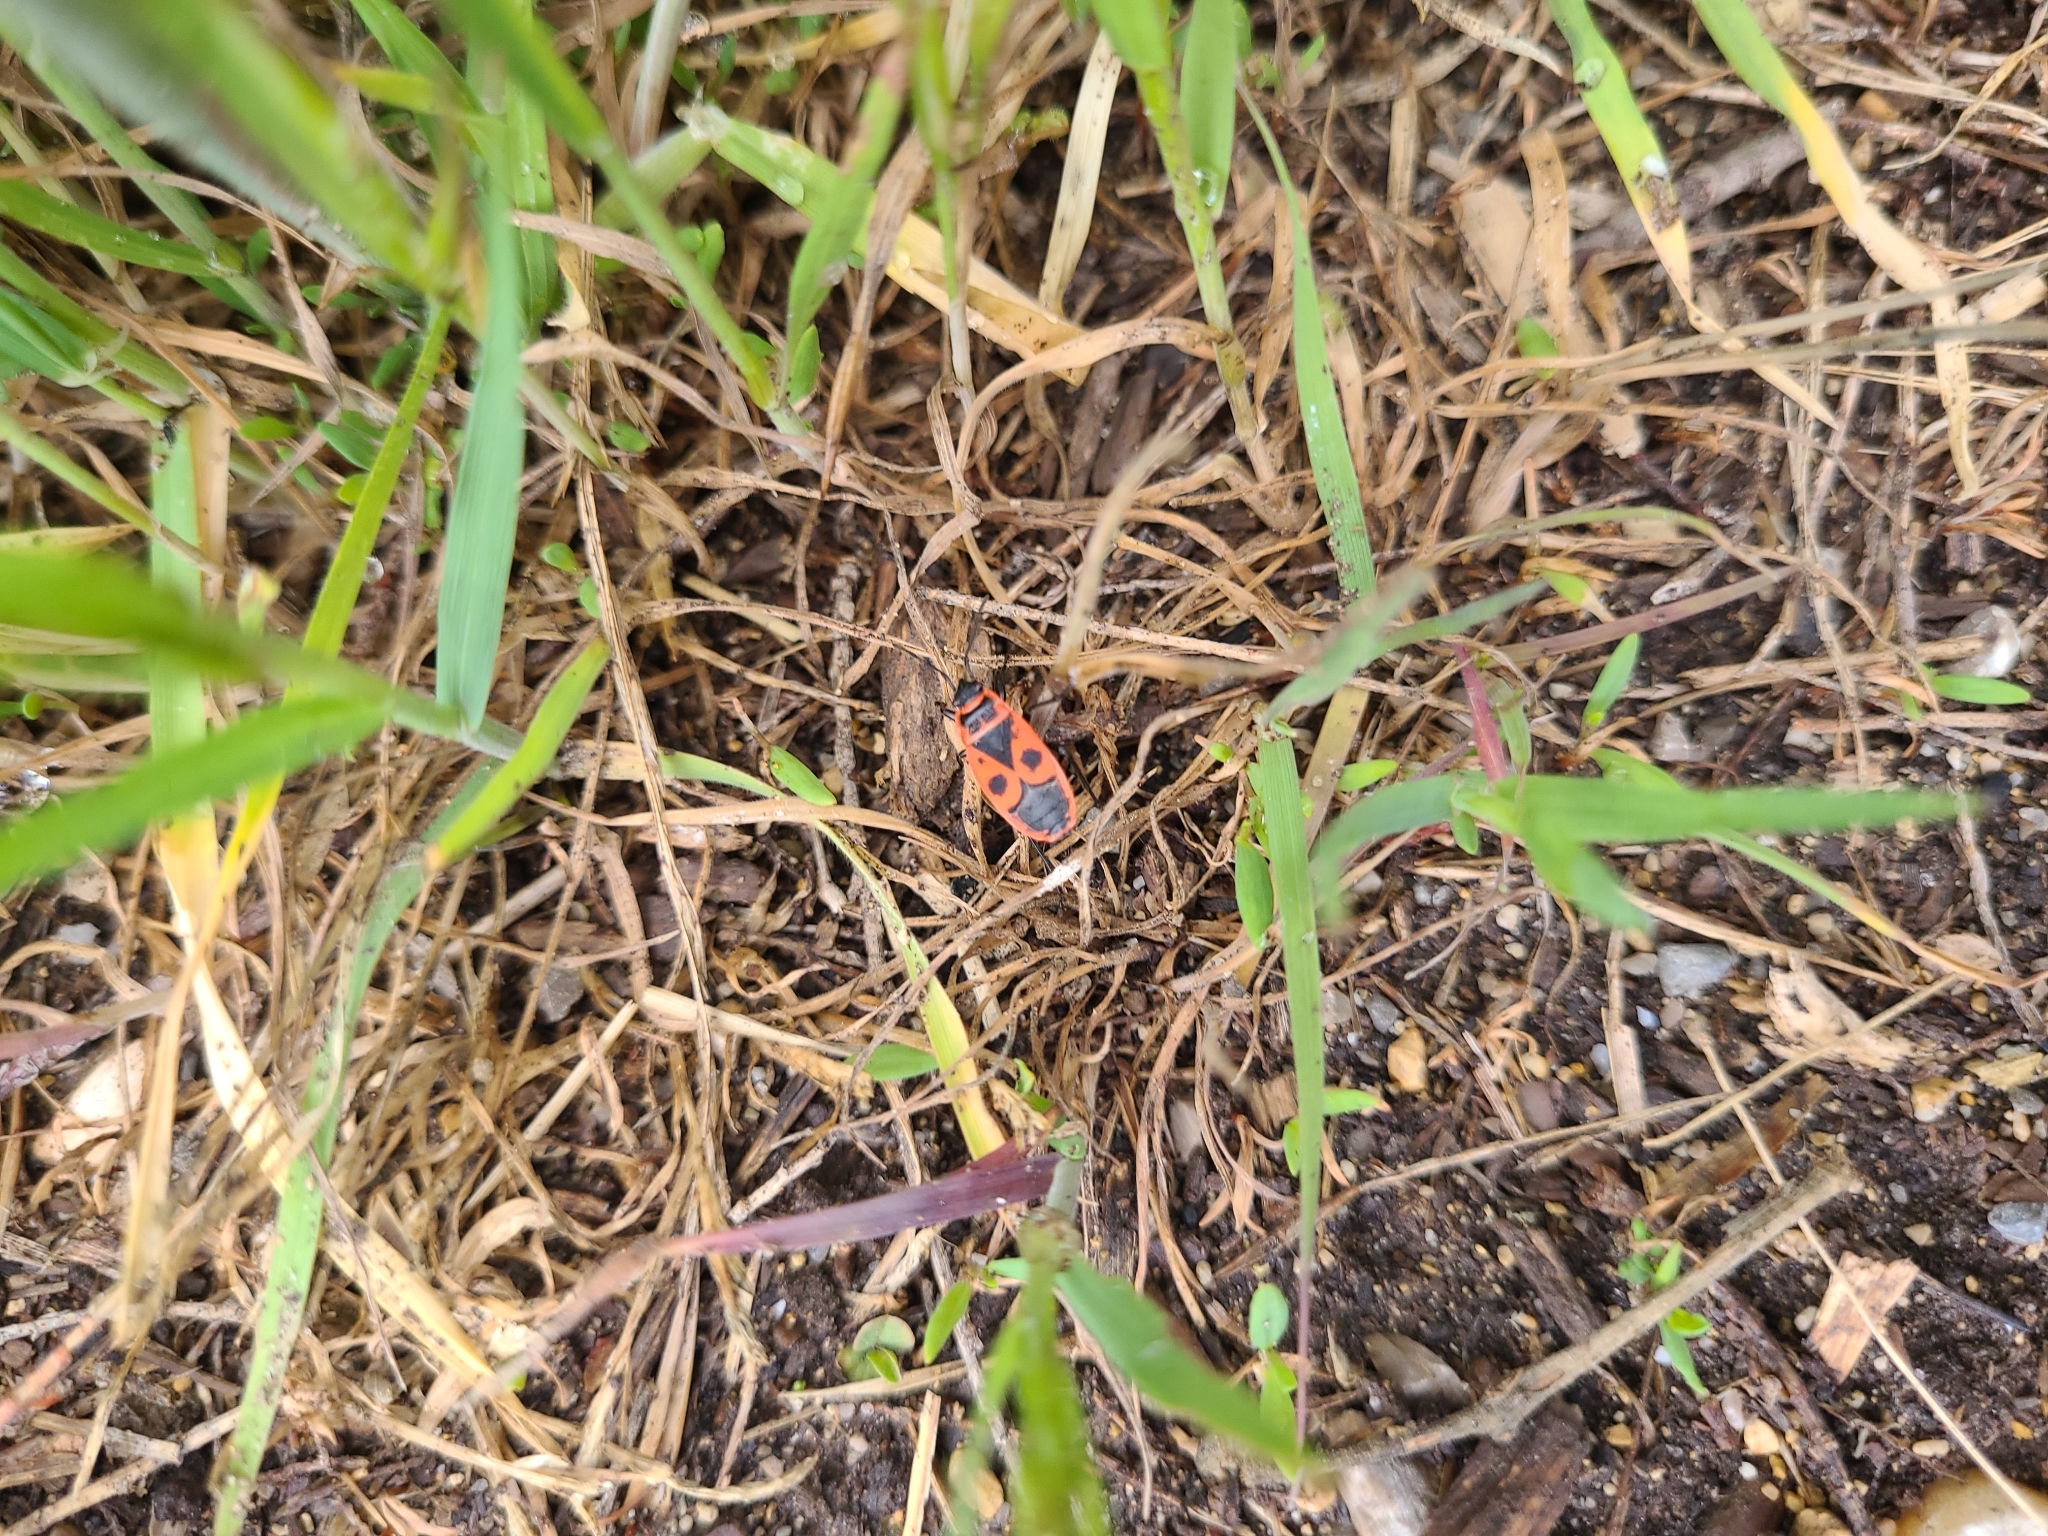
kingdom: Animalia
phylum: Arthropoda
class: Insecta
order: Hemiptera
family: Pyrrhocoridae
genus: Pyrrhocoris
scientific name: Pyrrhocoris apterus
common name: Firebug
